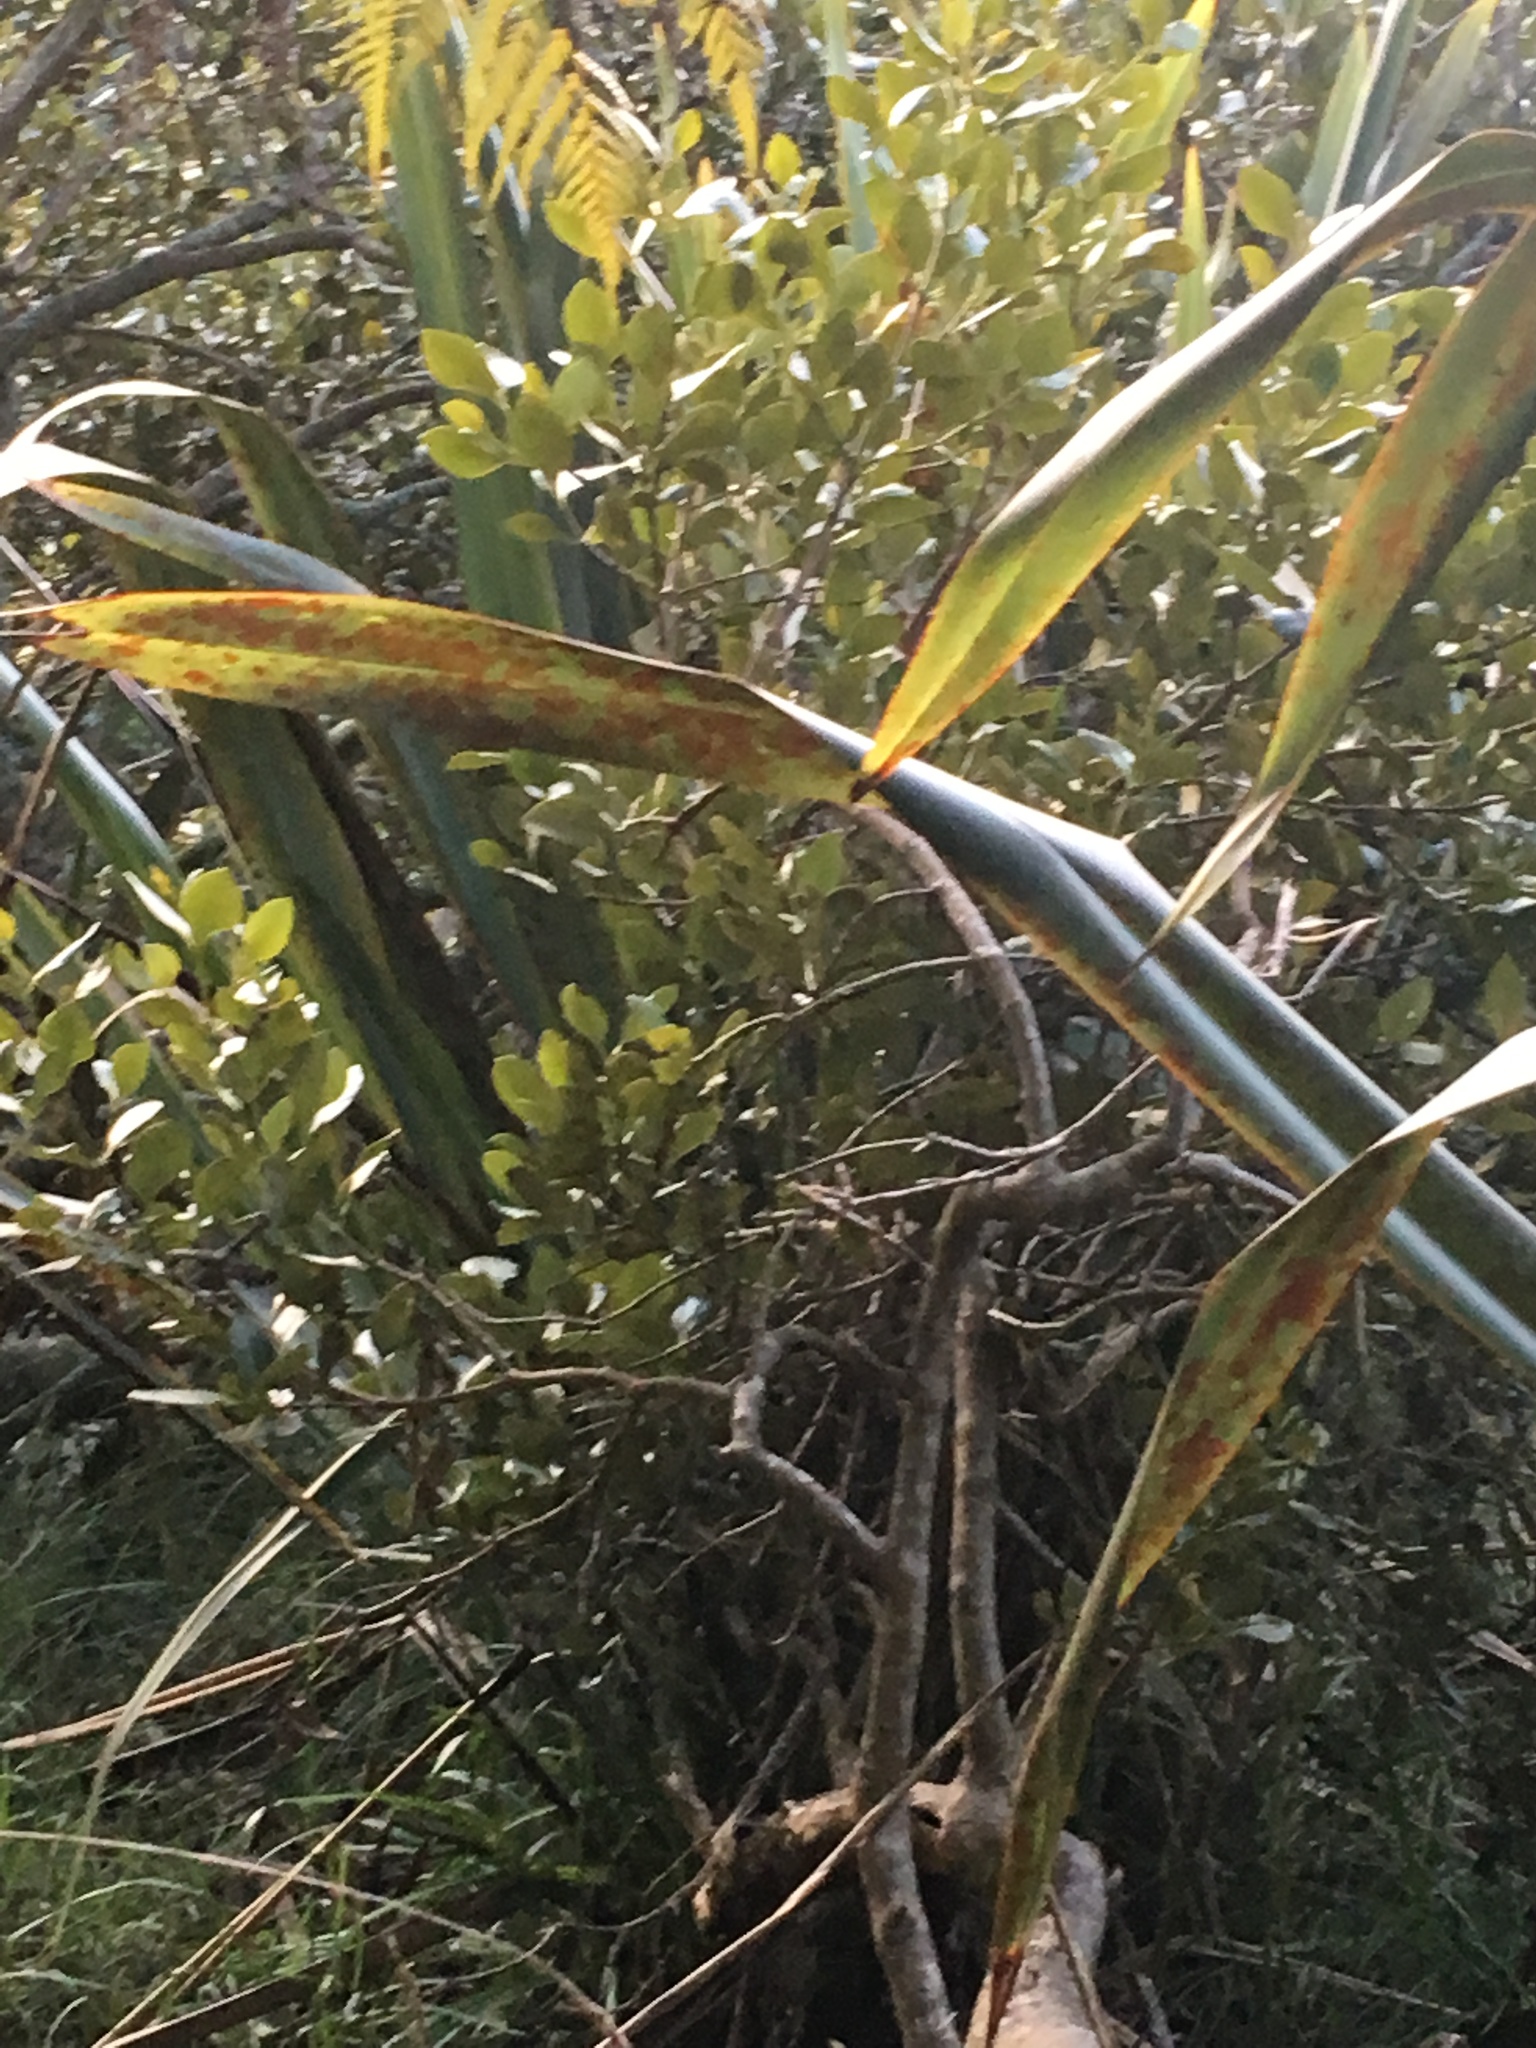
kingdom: Plantae
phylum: Tracheophyta
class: Magnoliopsida
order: Lamiales
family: Acanthaceae
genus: Avicennia
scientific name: Avicennia marina
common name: Gray mangrove
